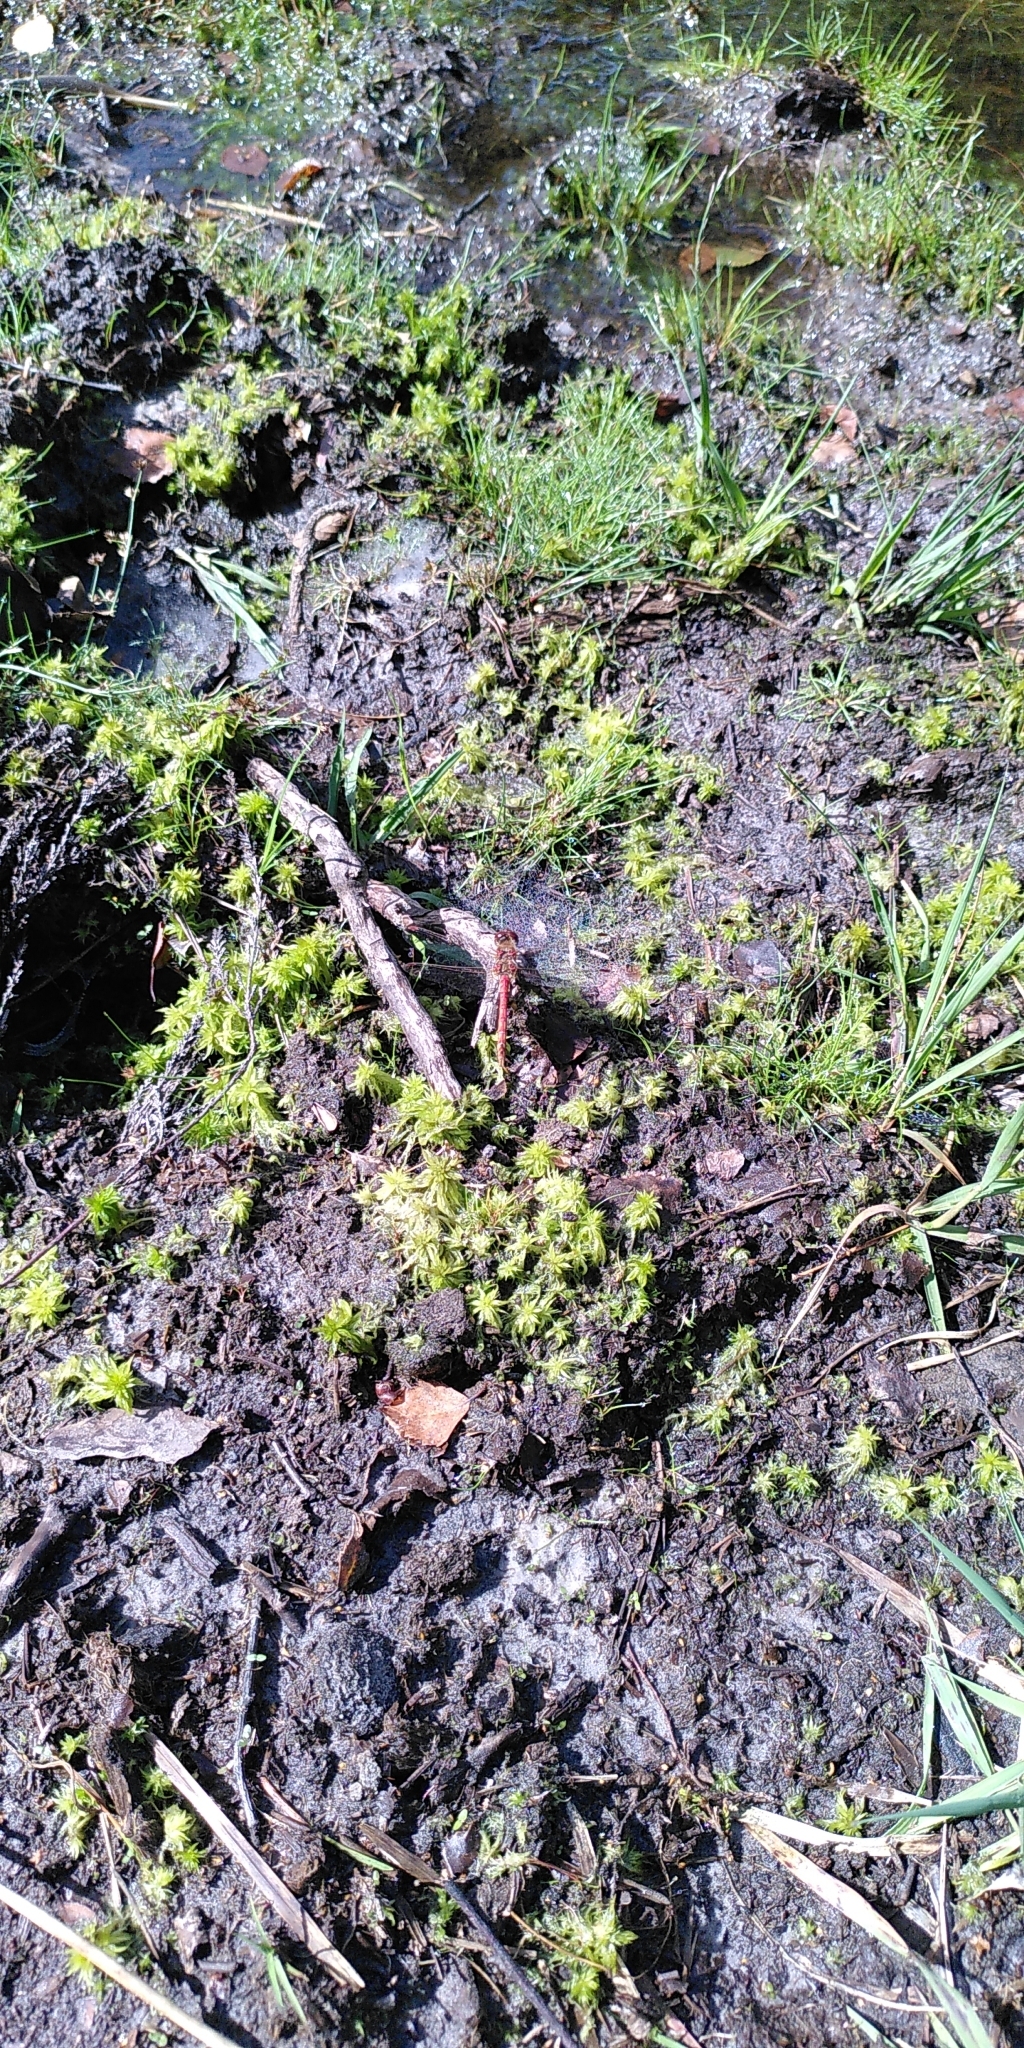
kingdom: Animalia
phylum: Arthropoda
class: Insecta
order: Odonata
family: Libellulidae
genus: Sympetrum
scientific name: Sympetrum striolatum
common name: Common darter
